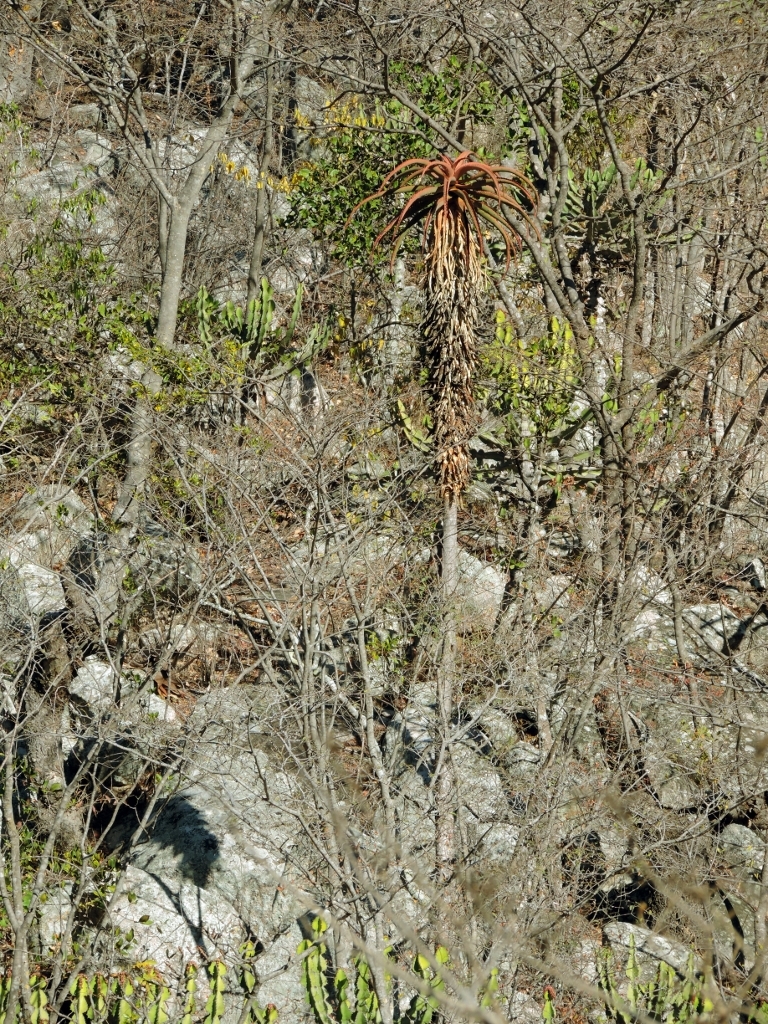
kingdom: Plantae
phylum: Tracheophyta
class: Liliopsida
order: Asparagales
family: Asphodelaceae
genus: Aloe
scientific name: Aloe excelsa
